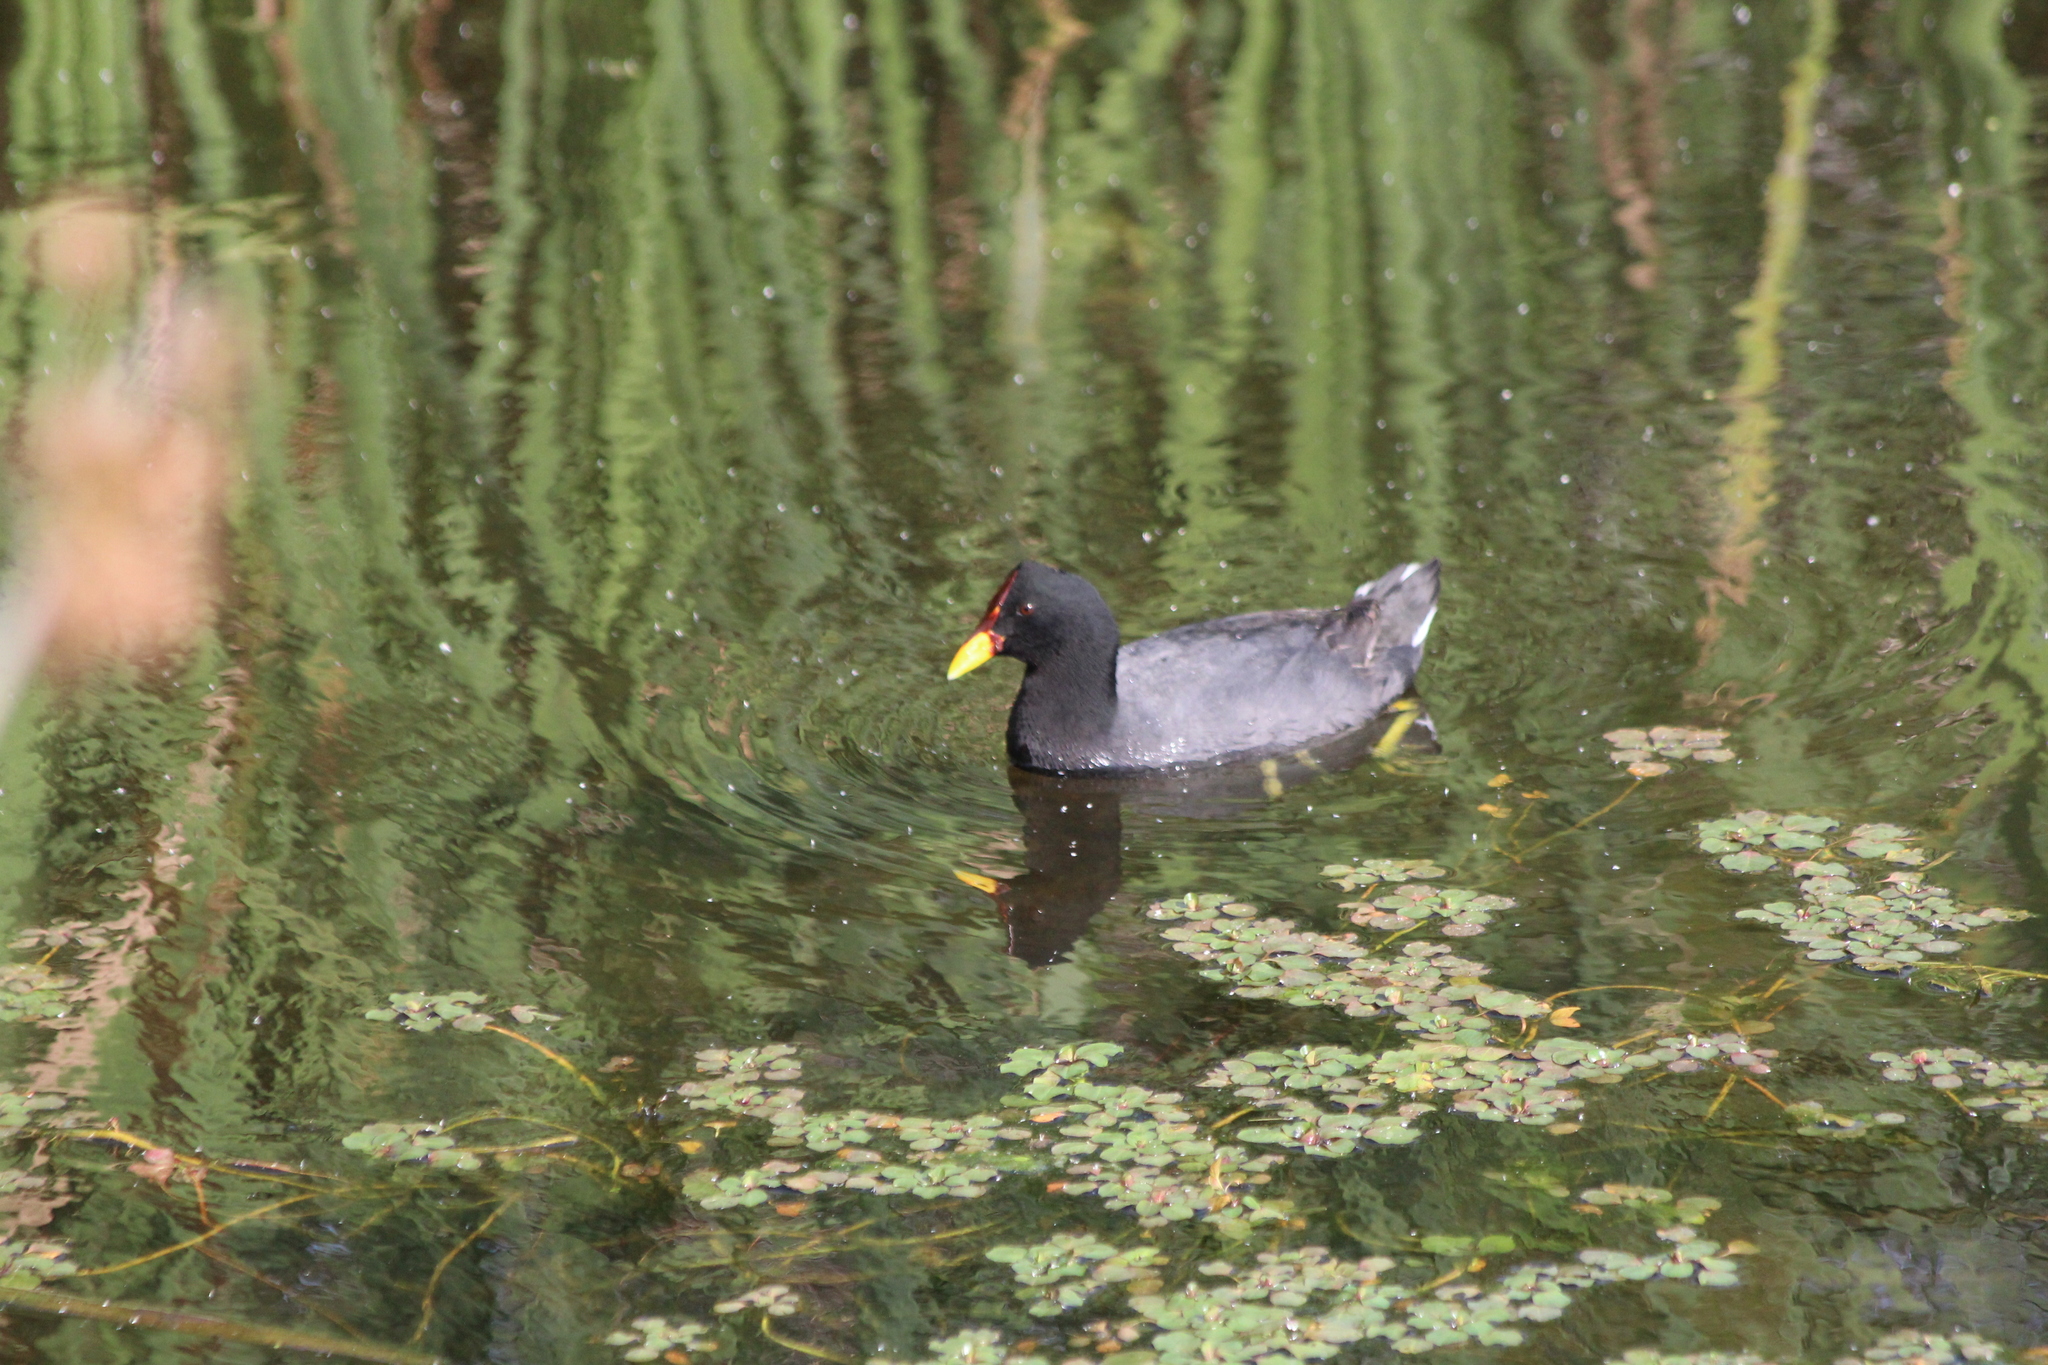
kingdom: Animalia
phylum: Chordata
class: Aves
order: Gruiformes
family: Rallidae
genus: Fulica
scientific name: Fulica rufifrons
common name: Red-fronted coot
